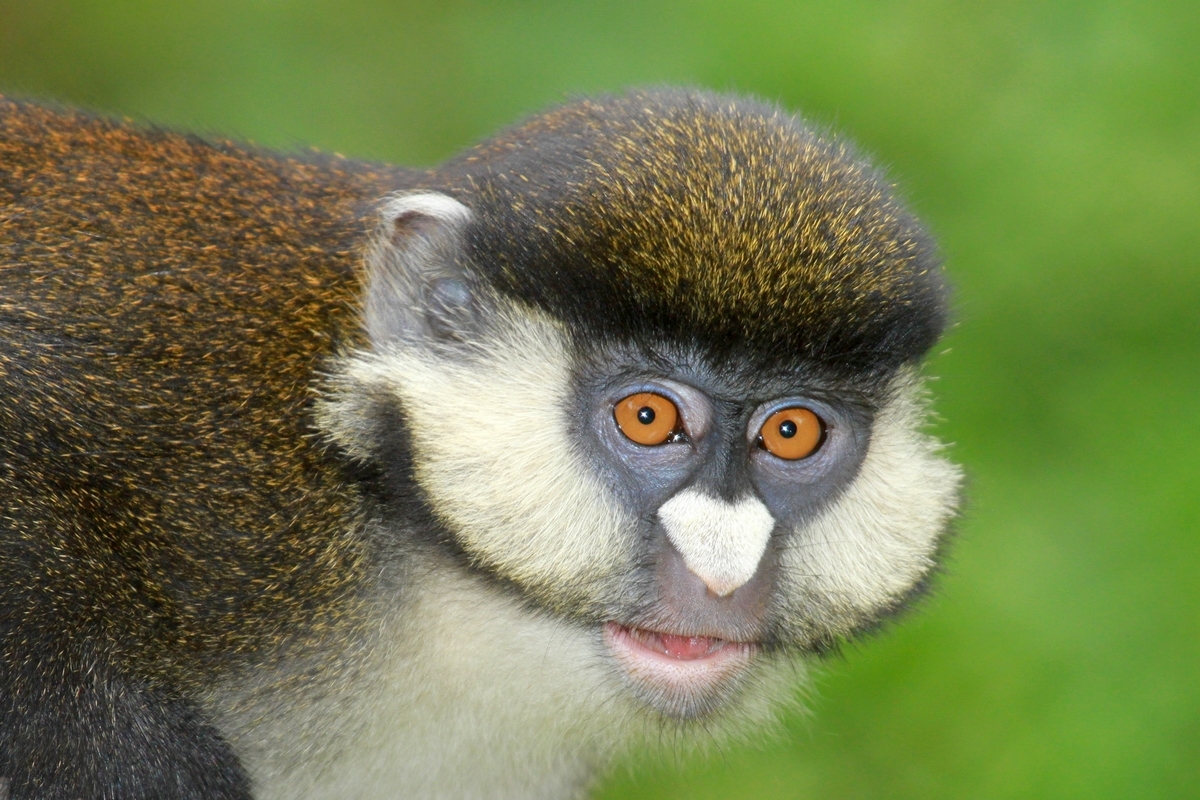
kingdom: Animalia
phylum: Chordata
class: Mammalia
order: Primates
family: Cercopithecidae
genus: Cercopithecus
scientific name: Cercopithecus ascanius
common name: Red-tailed monkey
